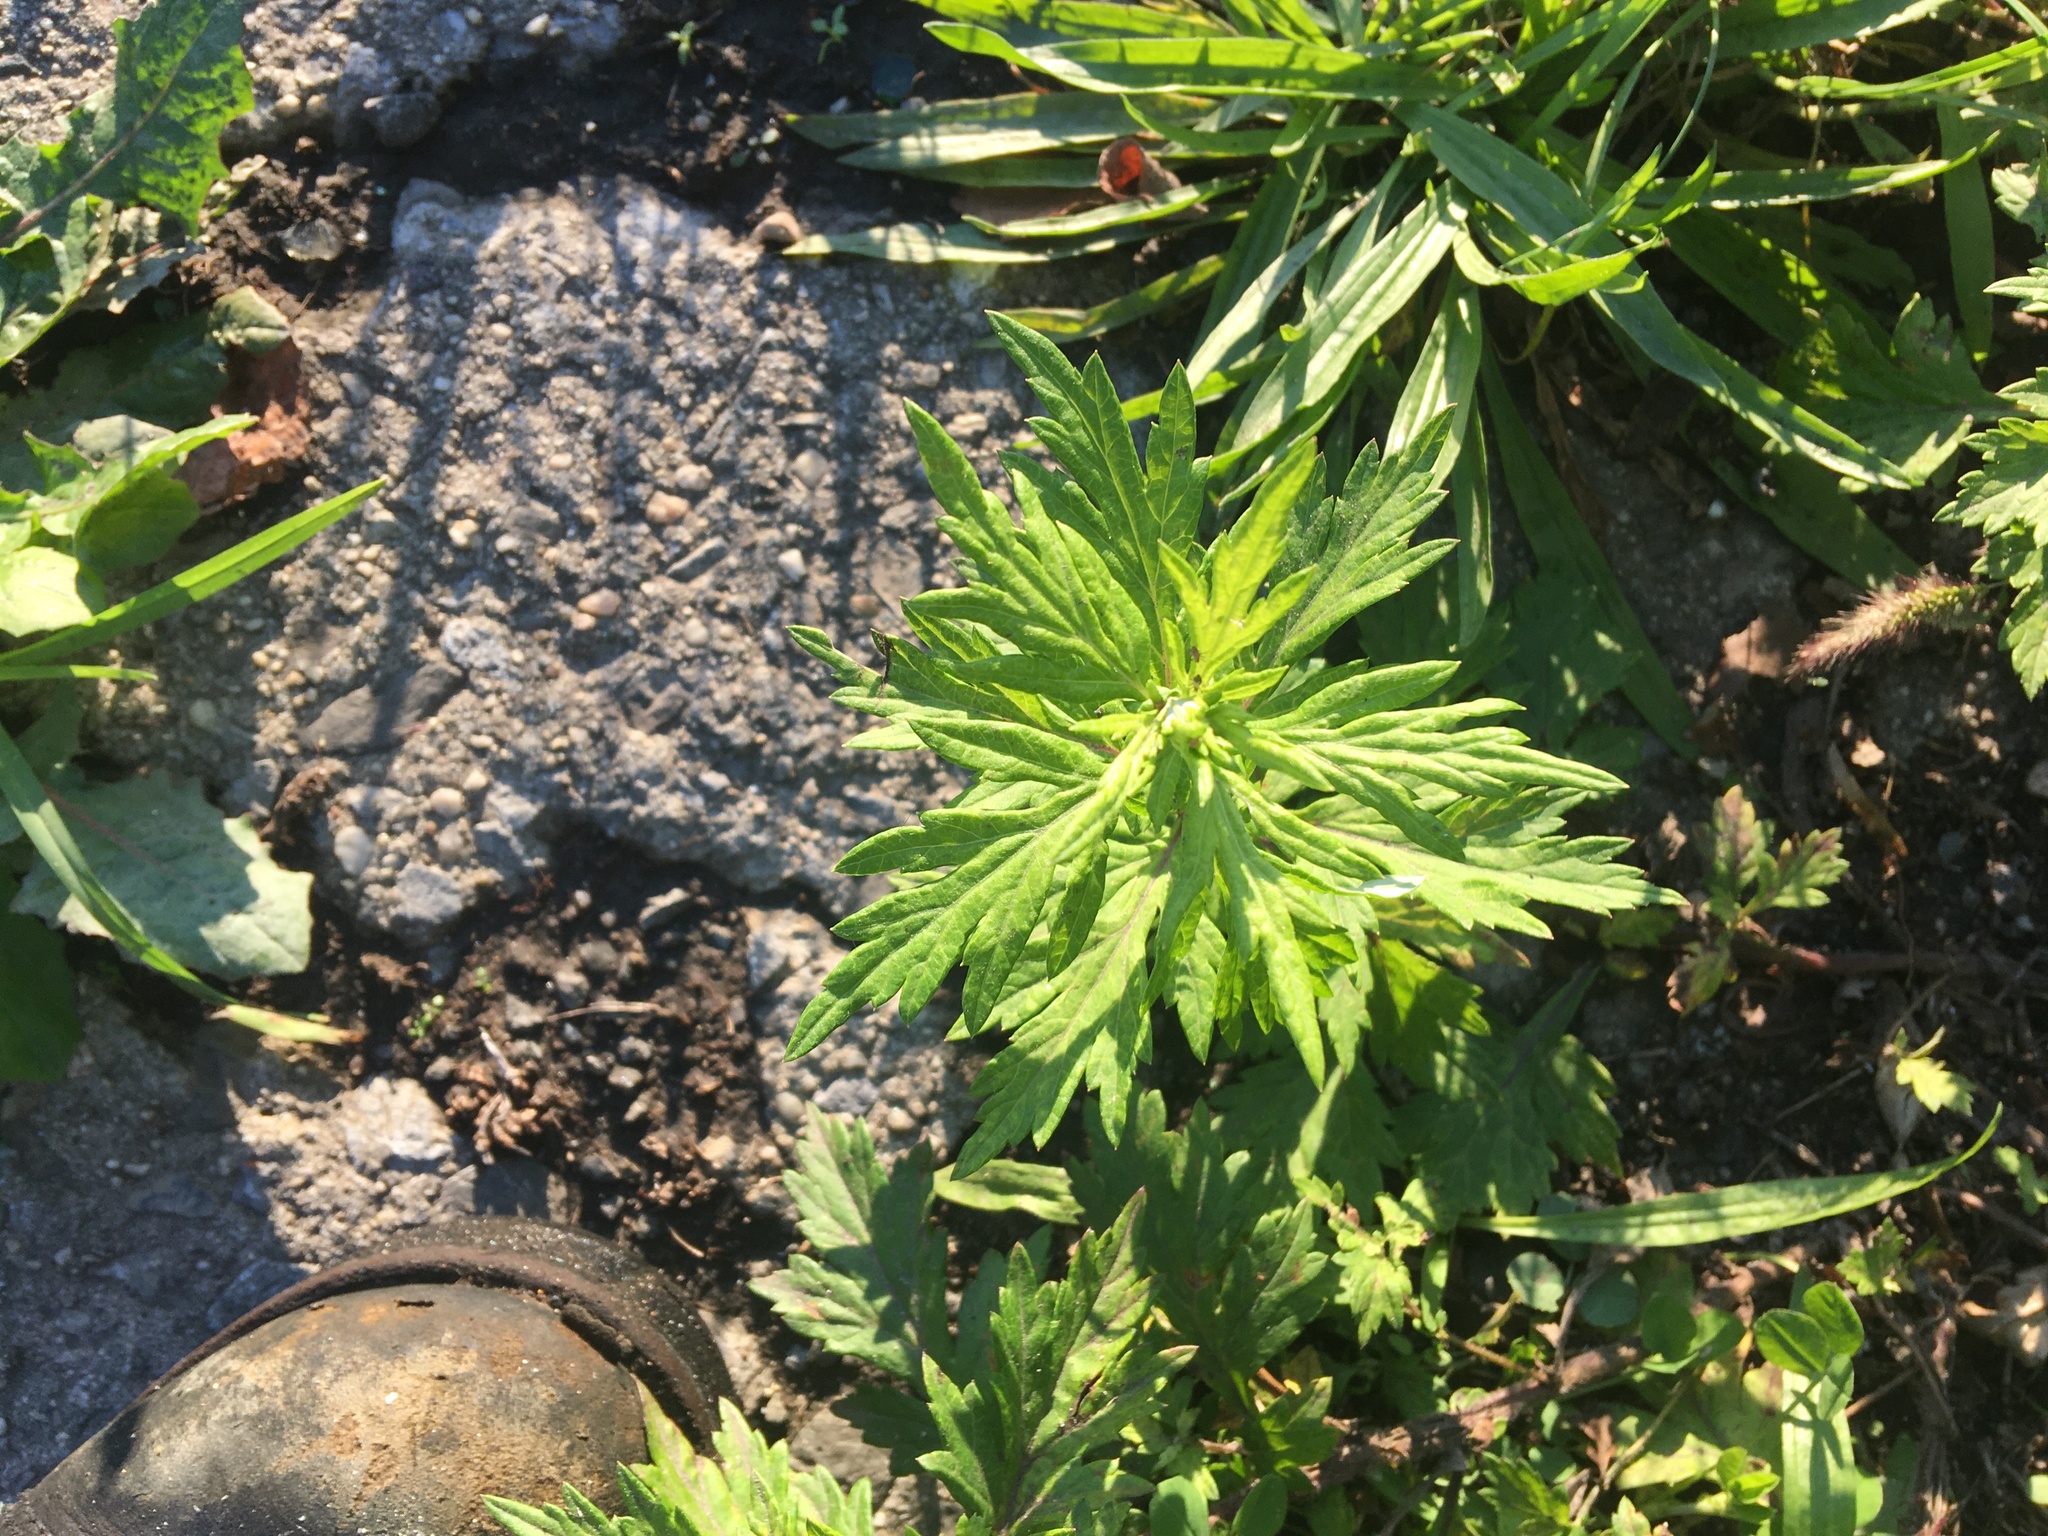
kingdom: Plantae
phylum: Tracheophyta
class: Magnoliopsida
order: Asterales
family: Asteraceae
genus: Artemisia
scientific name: Artemisia vulgaris
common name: Mugwort
